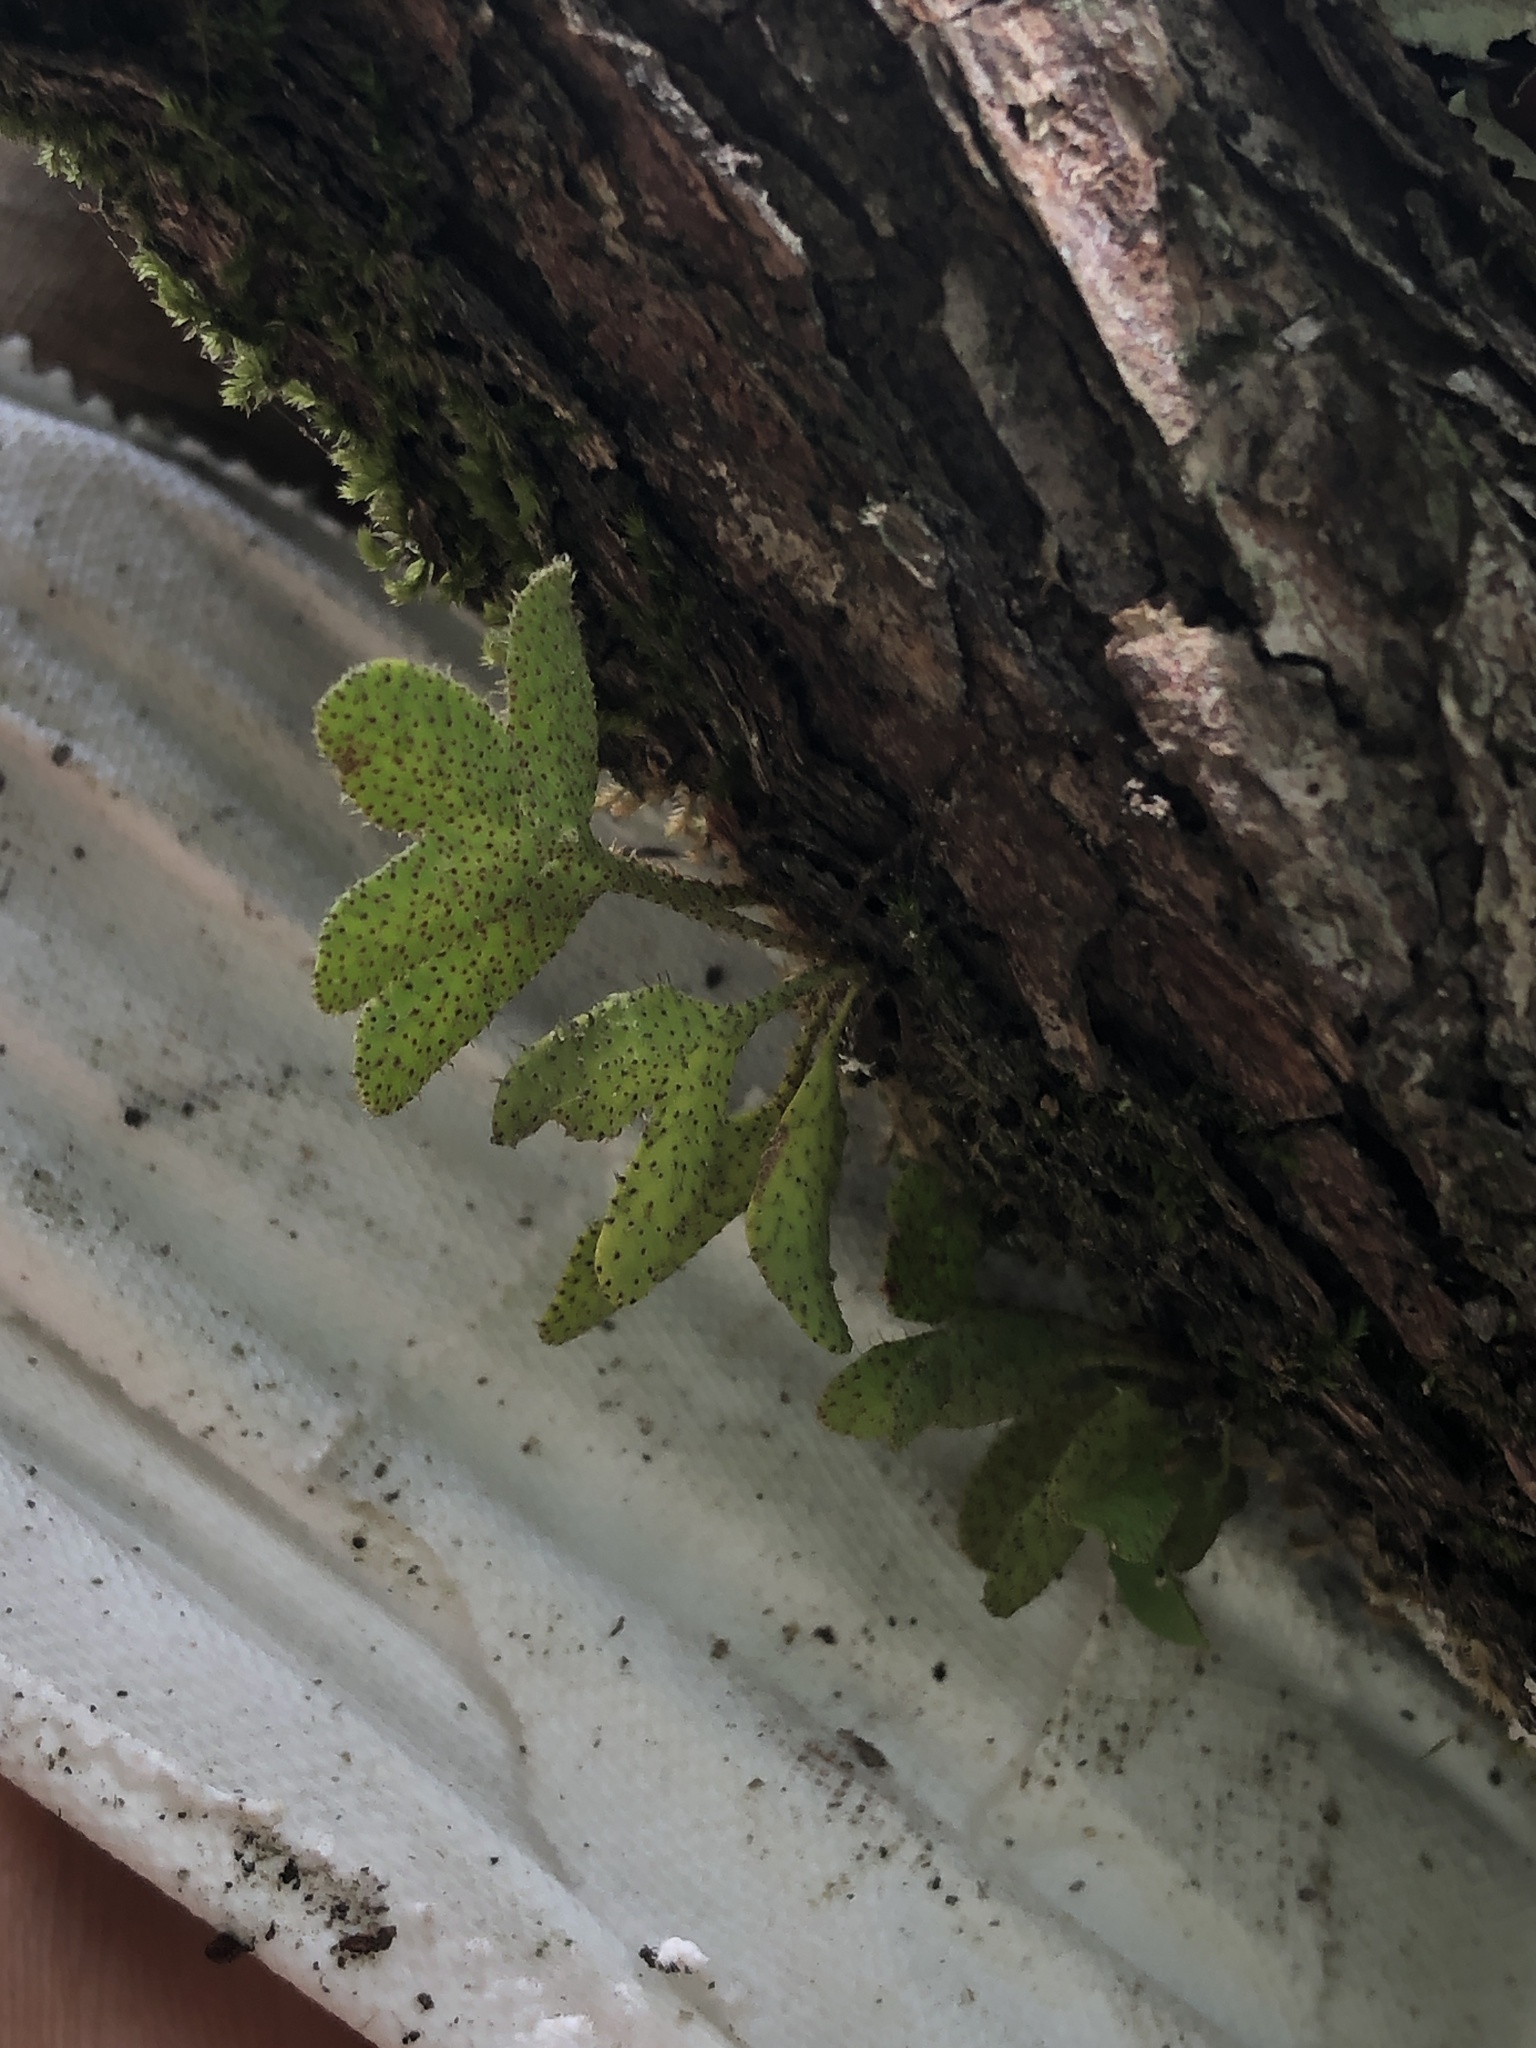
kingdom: Plantae
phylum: Tracheophyta
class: Polypodiopsida
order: Polypodiales
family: Polypodiaceae
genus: Pleopeltis
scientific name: Pleopeltis michauxiana
